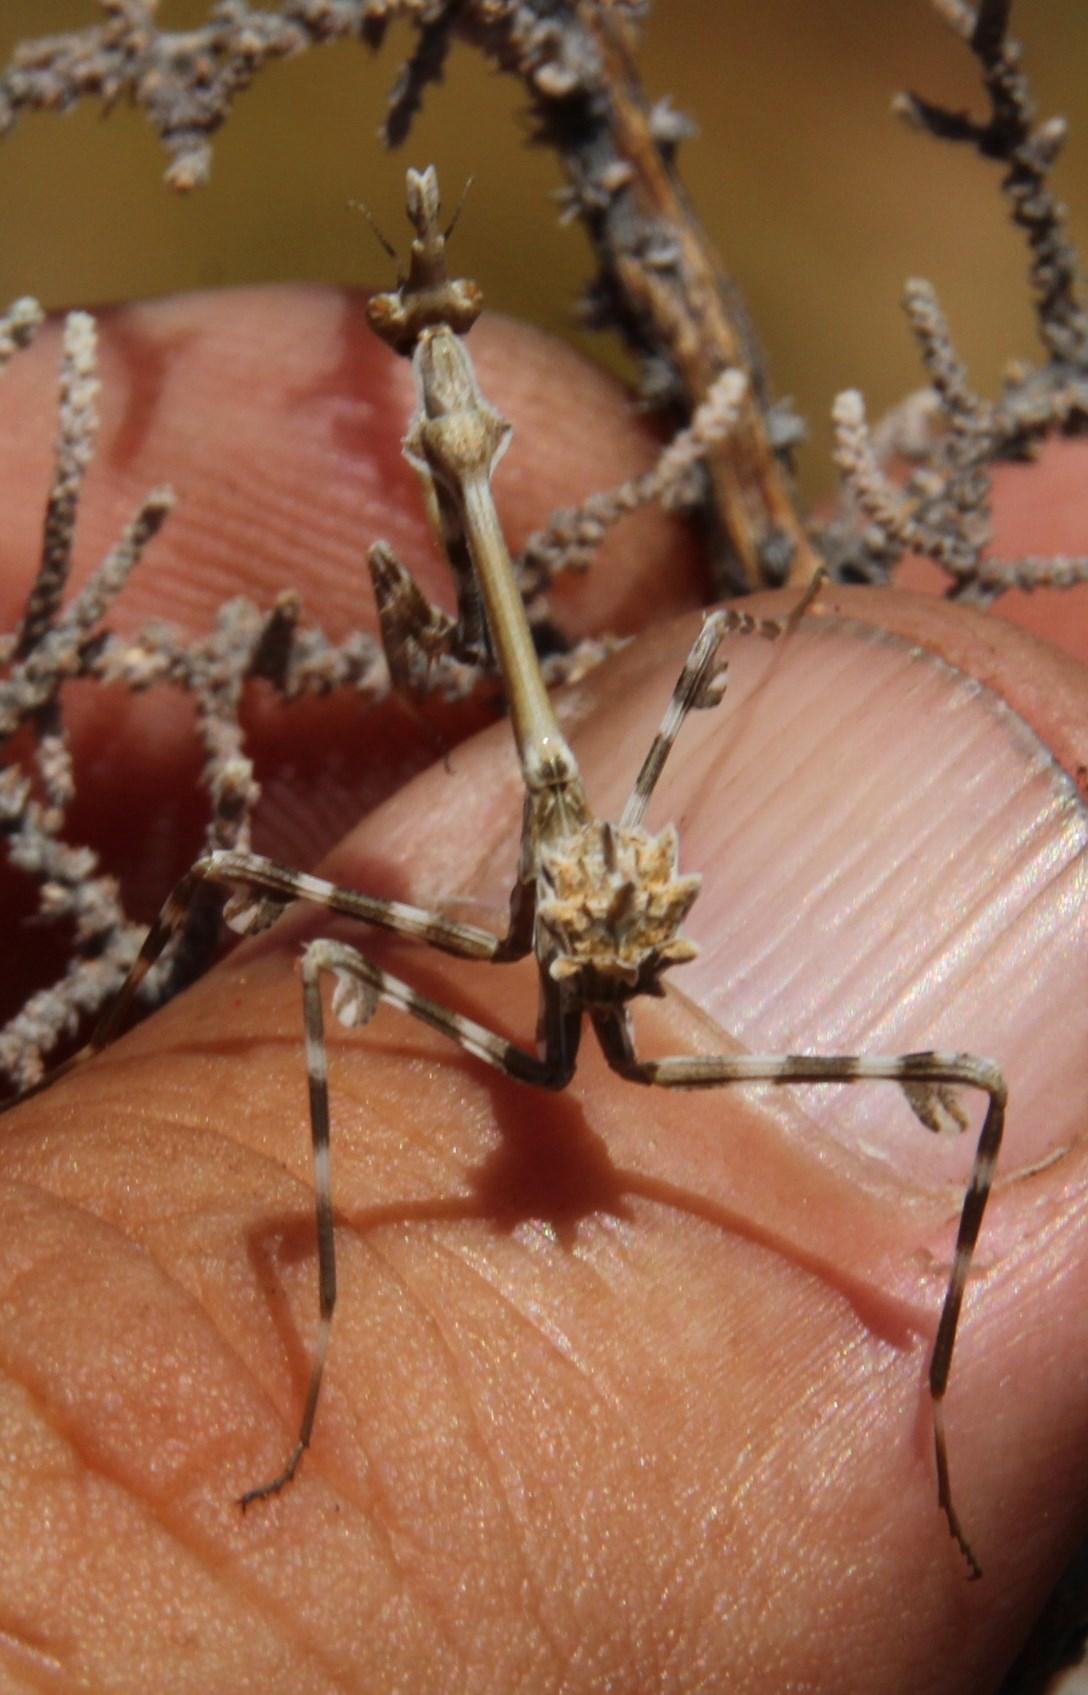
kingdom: Animalia
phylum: Arthropoda
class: Insecta
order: Mantodea
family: Empusidae
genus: Empusa
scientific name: Empusa binotata
